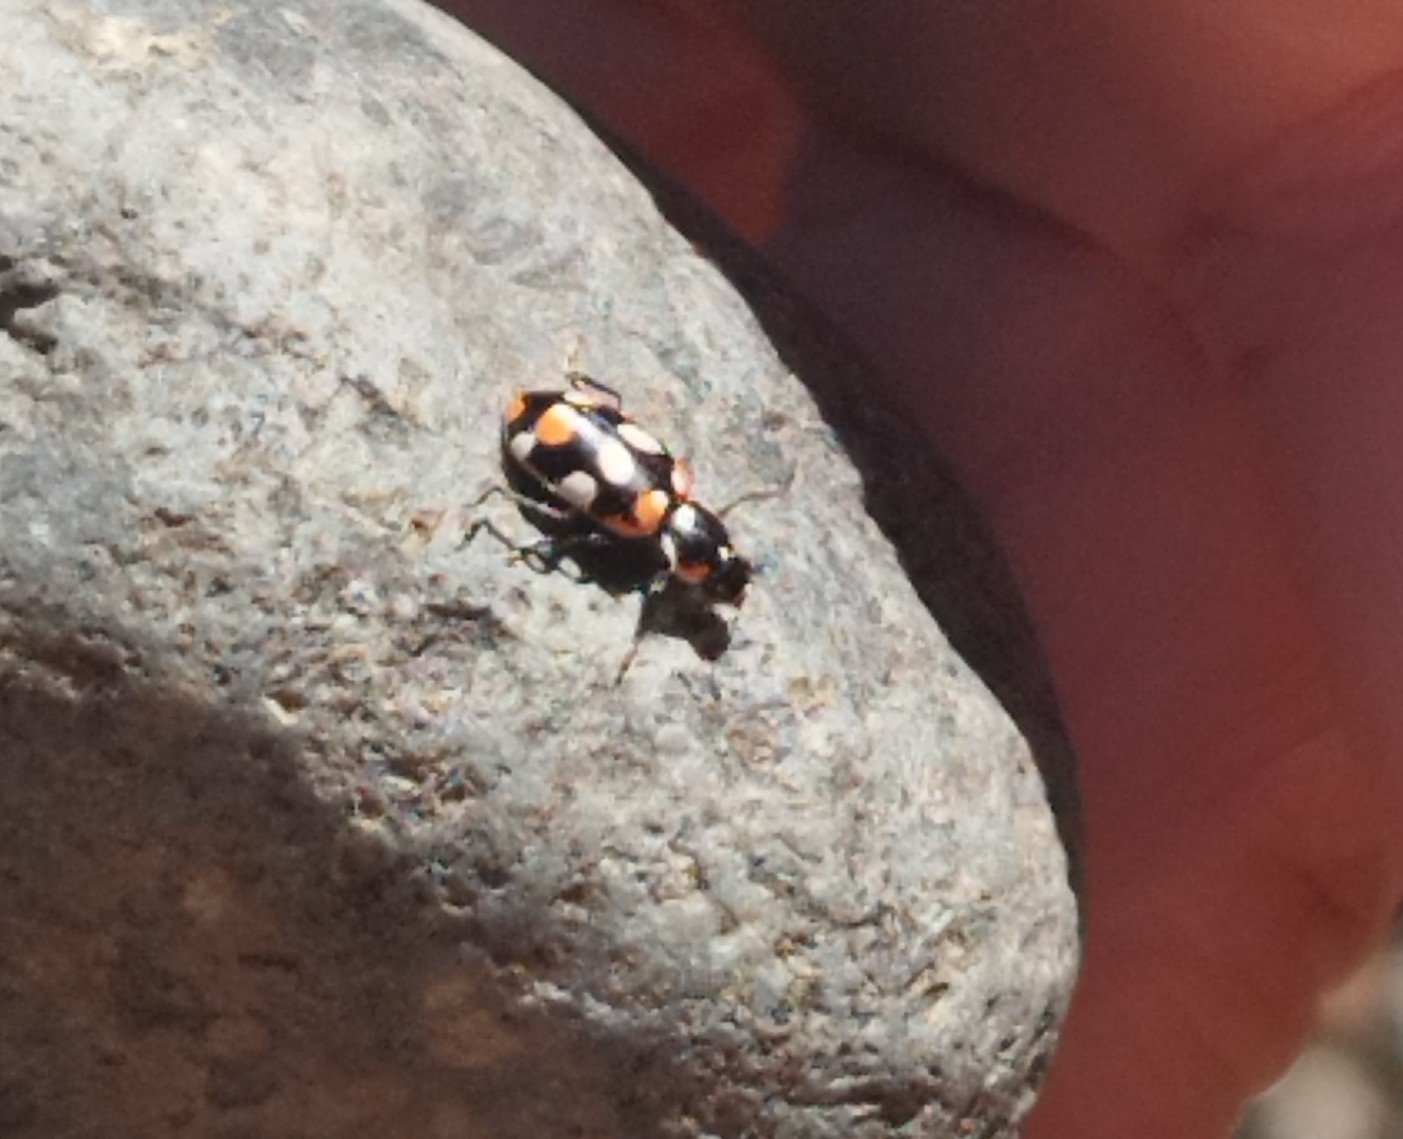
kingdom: Animalia
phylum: Arthropoda
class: Insecta
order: Coleoptera
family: Coccinellidae
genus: Eriopis
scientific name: Eriopis connexa
